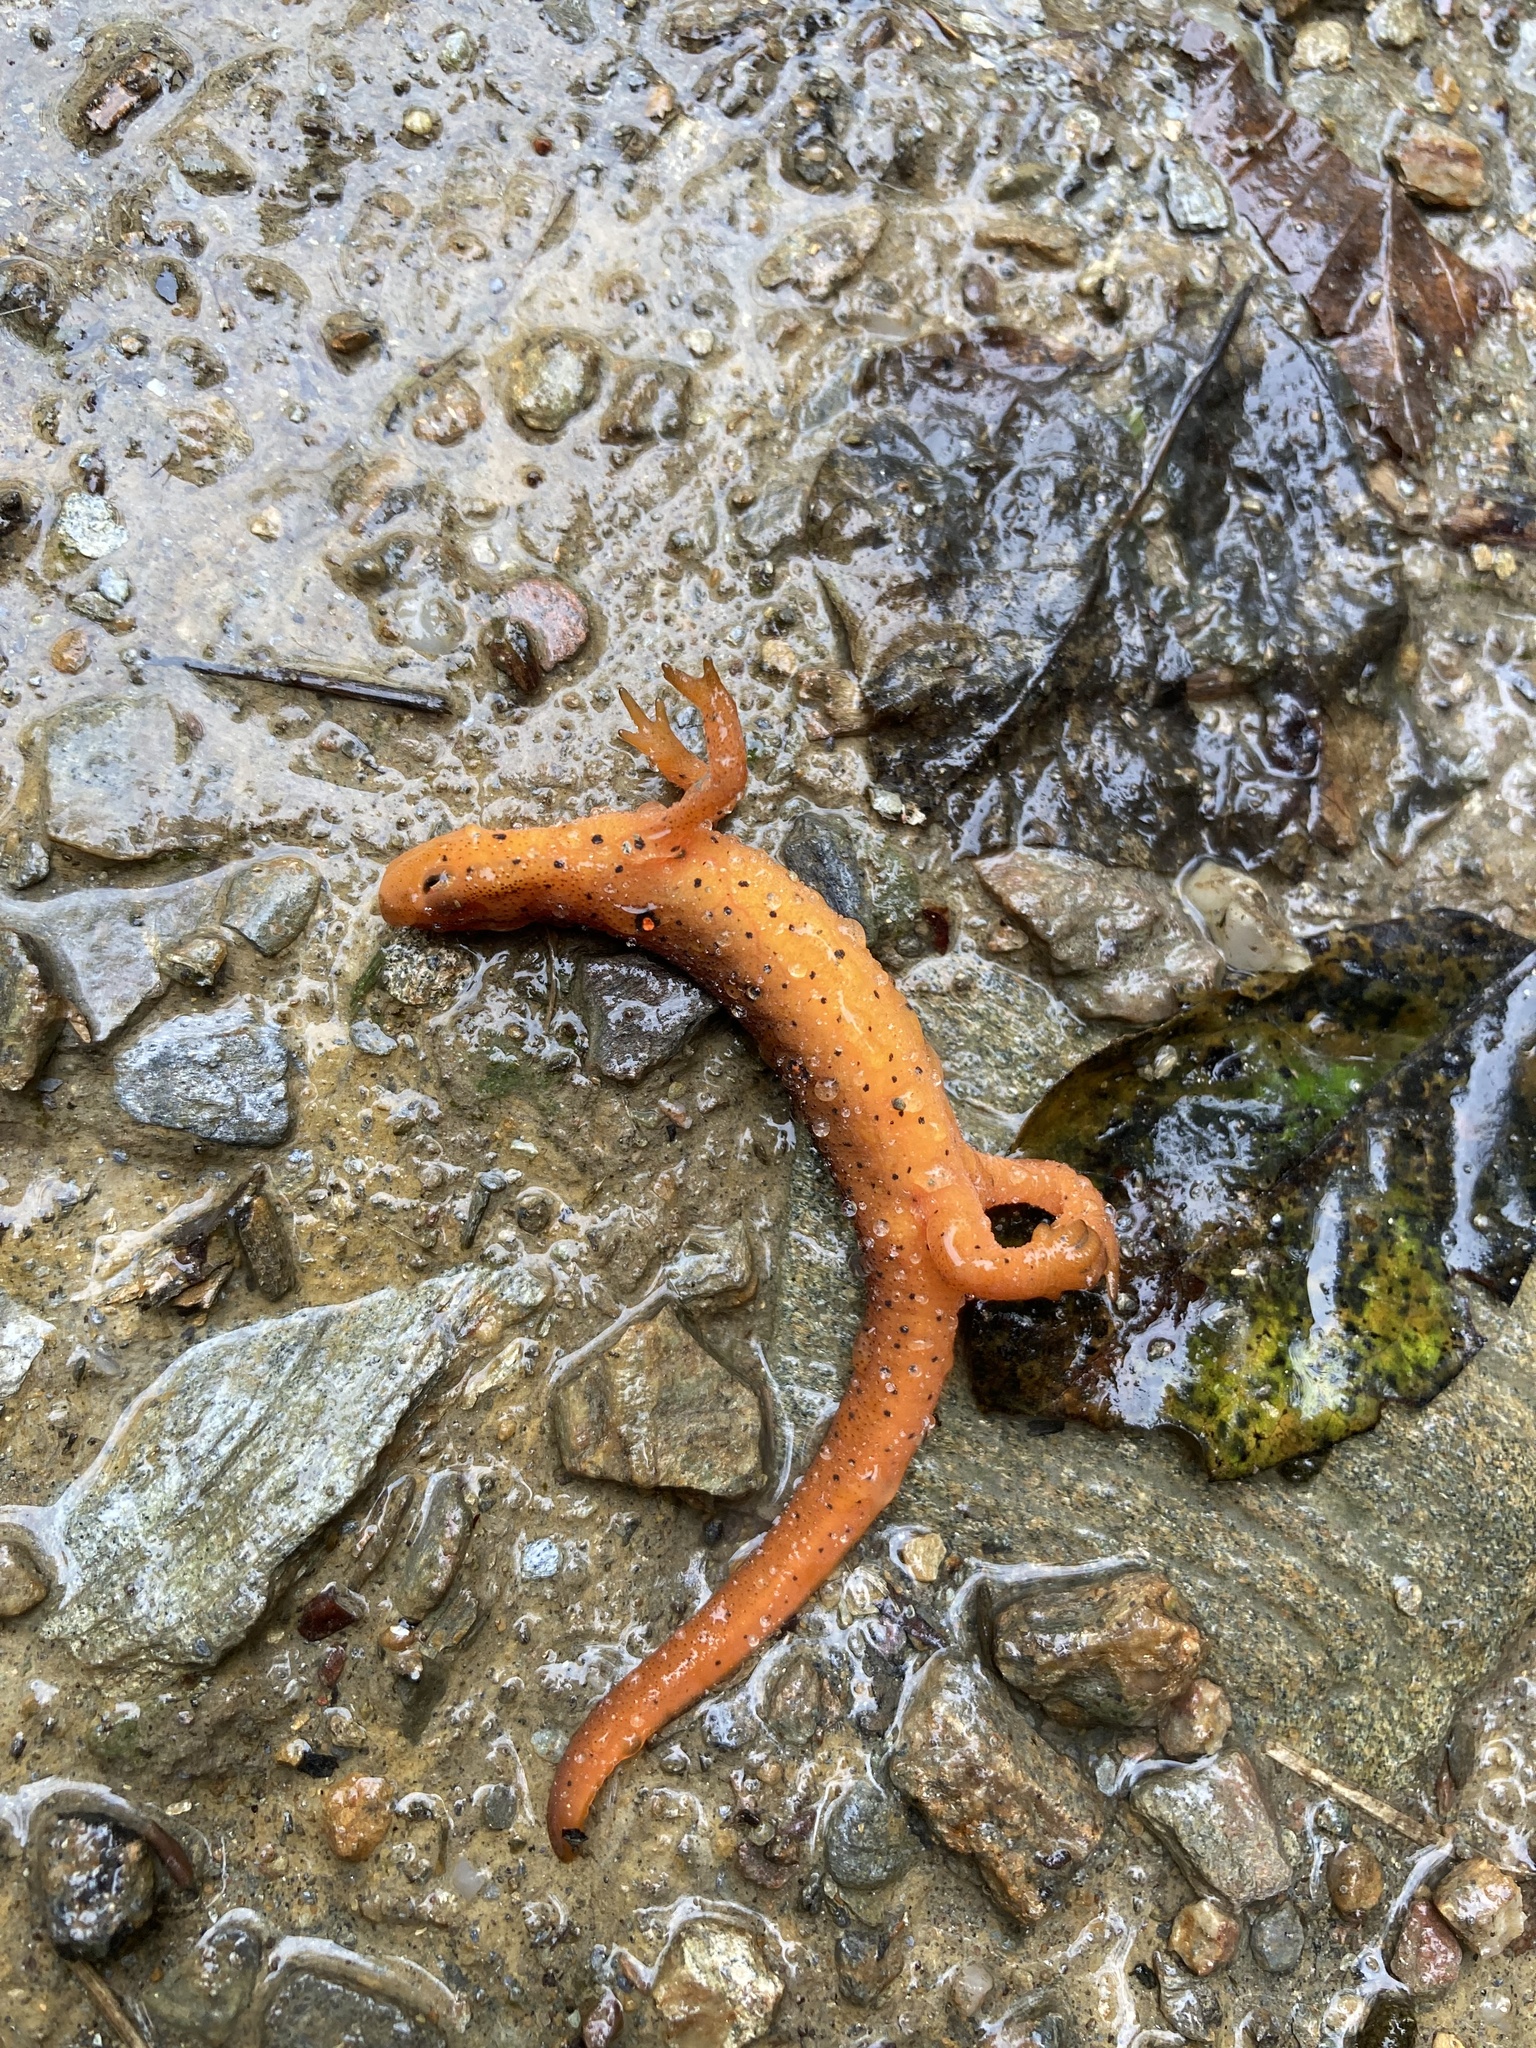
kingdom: Animalia
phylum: Chordata
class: Amphibia
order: Caudata
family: Salamandridae
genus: Notophthalmus
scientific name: Notophthalmus viridescens
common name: Eastern newt
